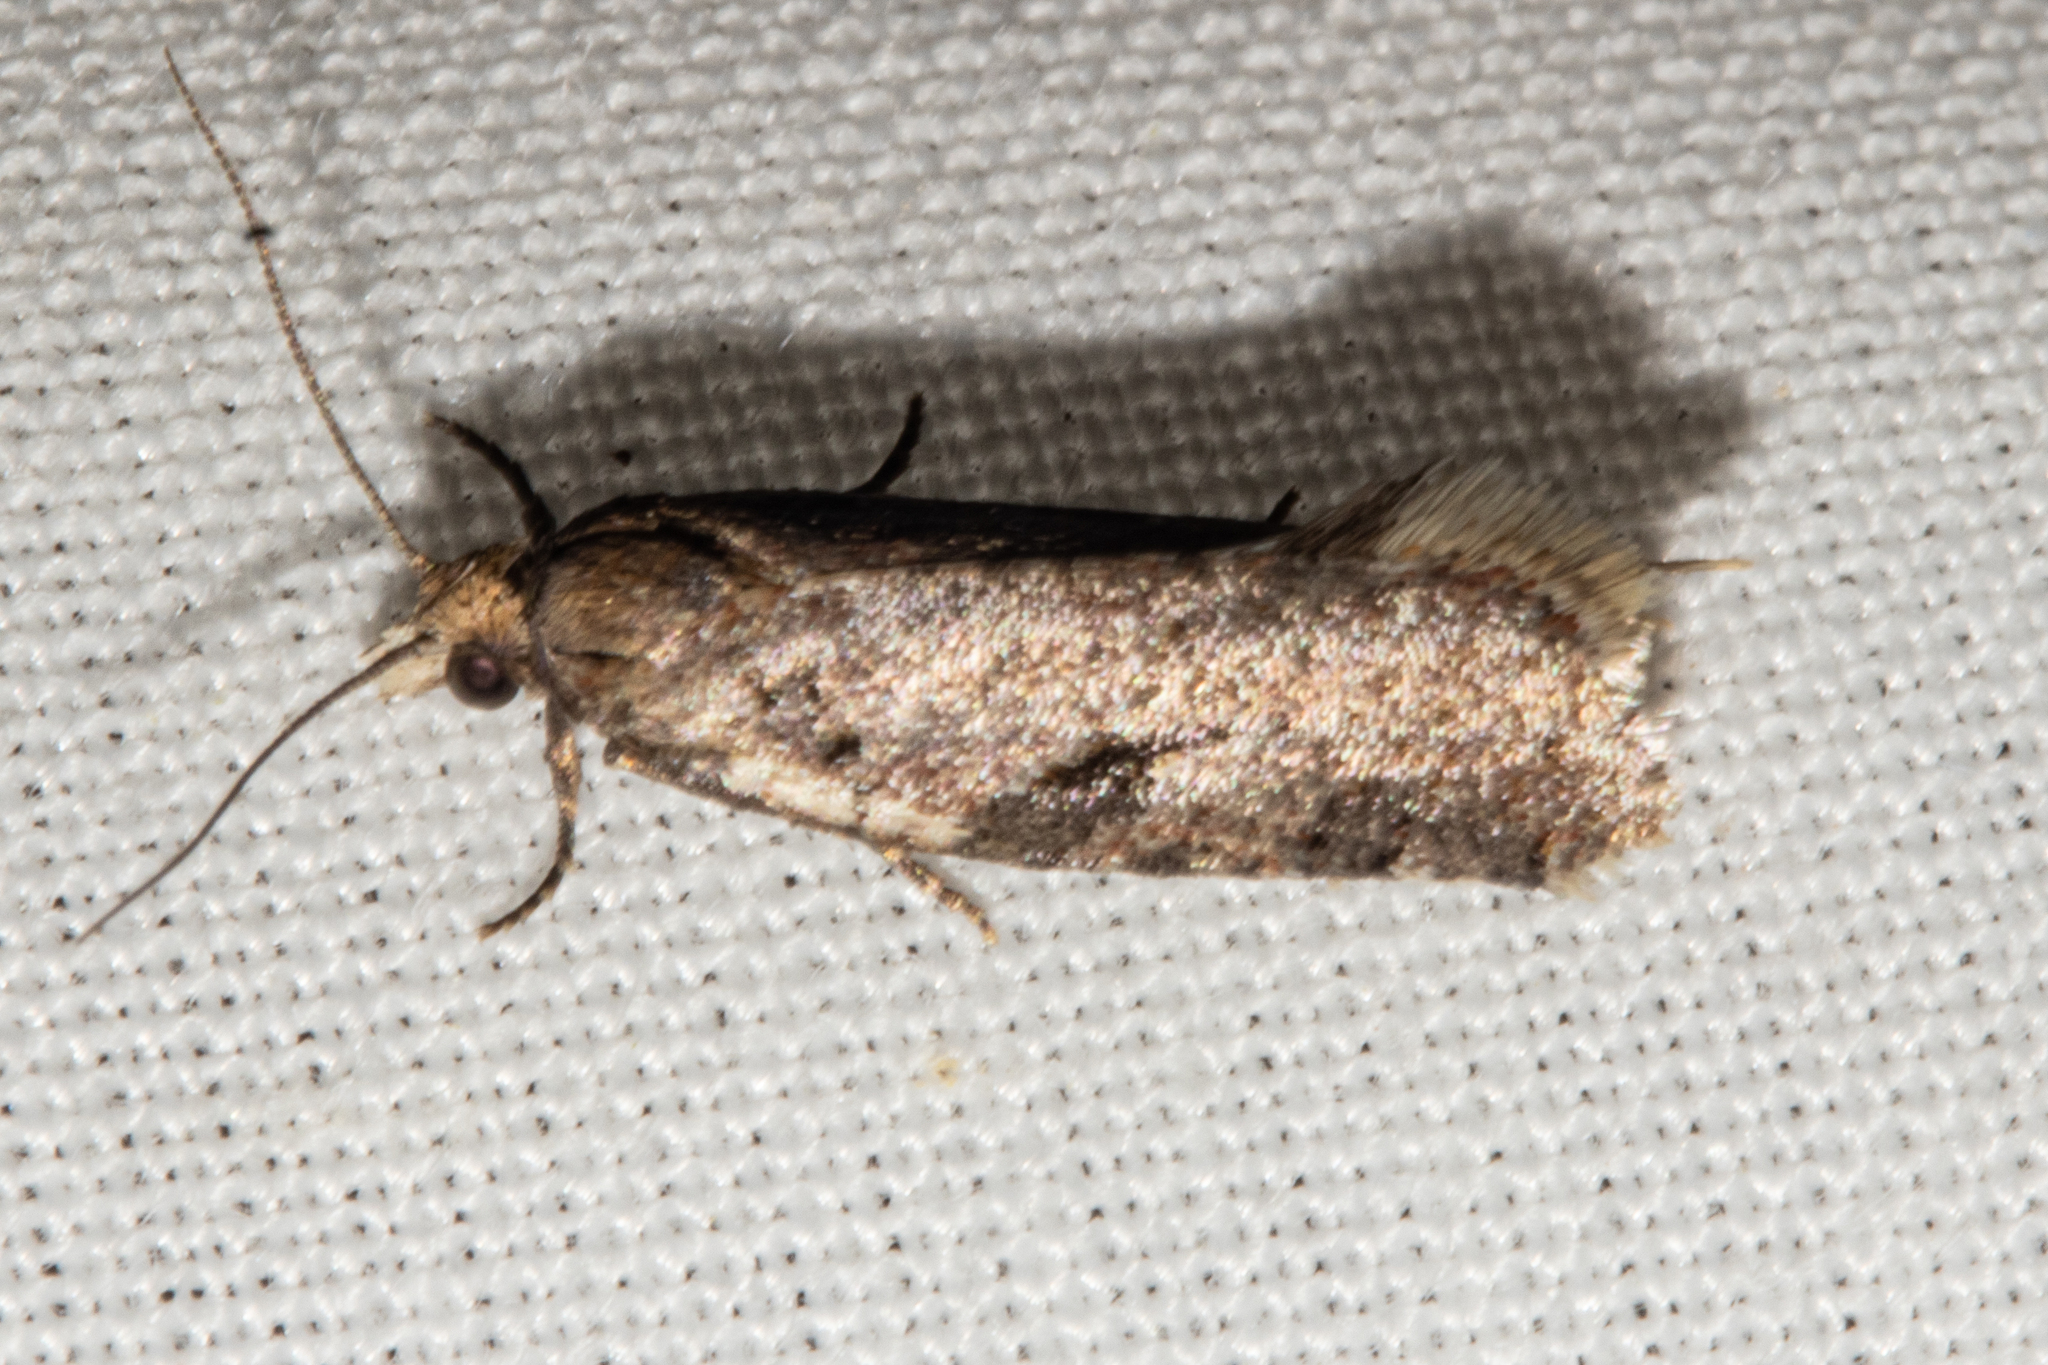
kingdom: Animalia
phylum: Arthropoda
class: Insecta
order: Lepidoptera
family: Tortricidae
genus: Capua
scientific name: Capua semiferana
